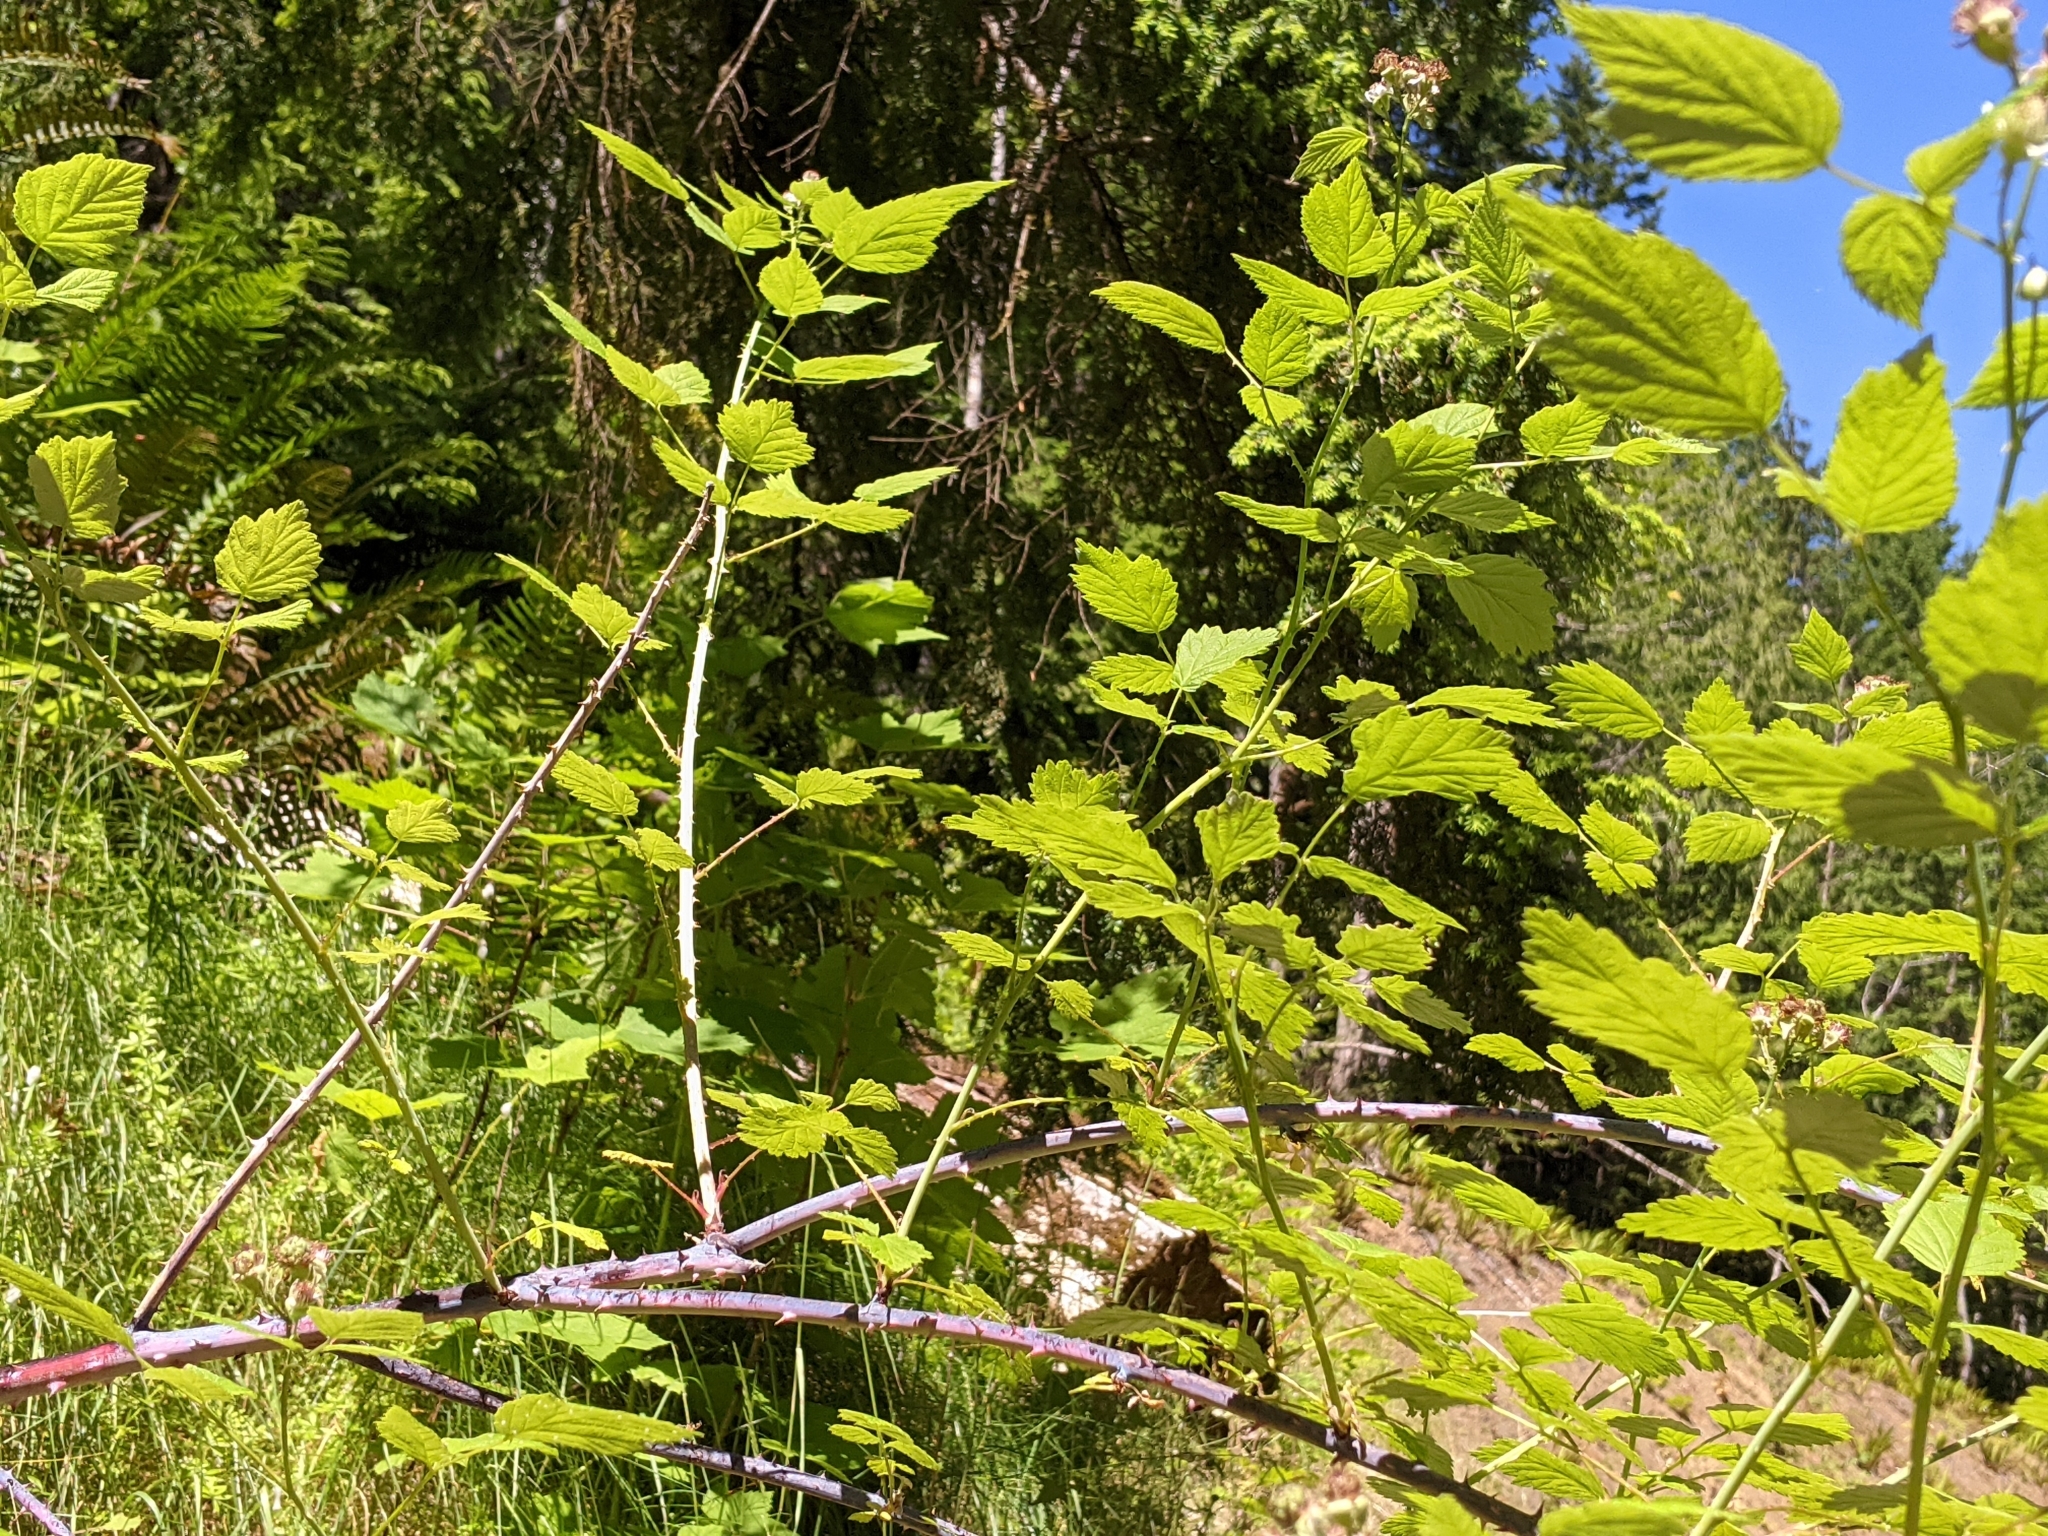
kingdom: Plantae
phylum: Tracheophyta
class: Magnoliopsida
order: Rosales
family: Rosaceae
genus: Rubus
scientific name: Rubus leucodermis
